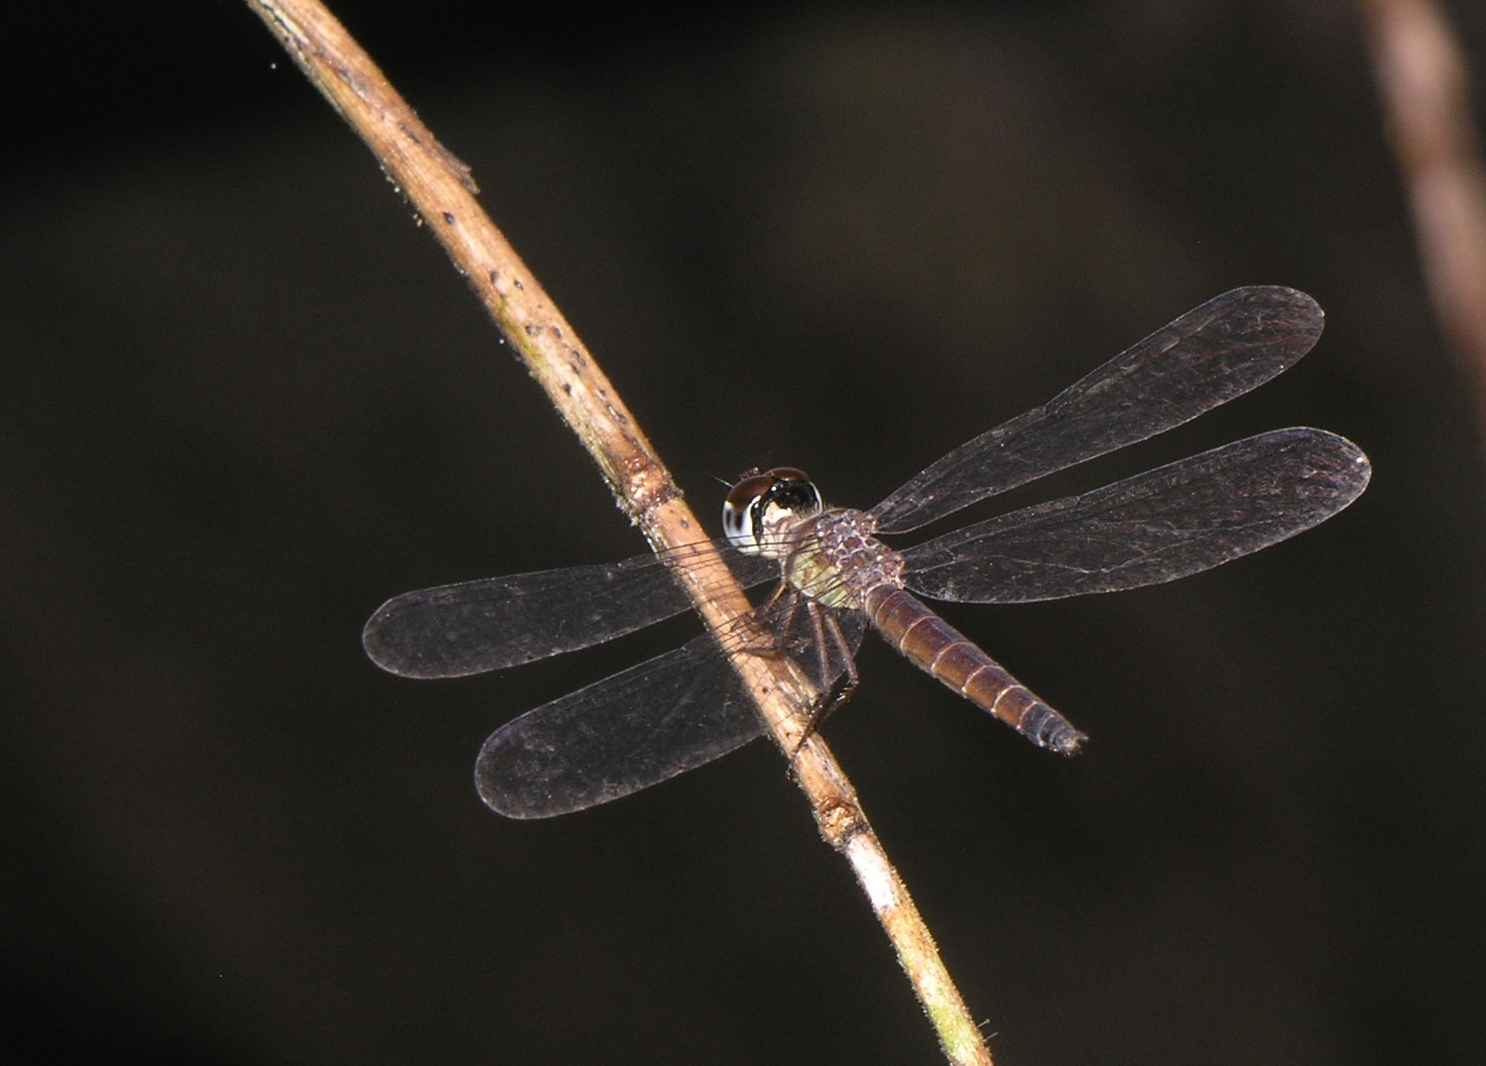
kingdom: Animalia
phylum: Arthropoda
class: Insecta
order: Odonata
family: Libellulidae
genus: Brachygonia
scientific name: Brachygonia oculata
